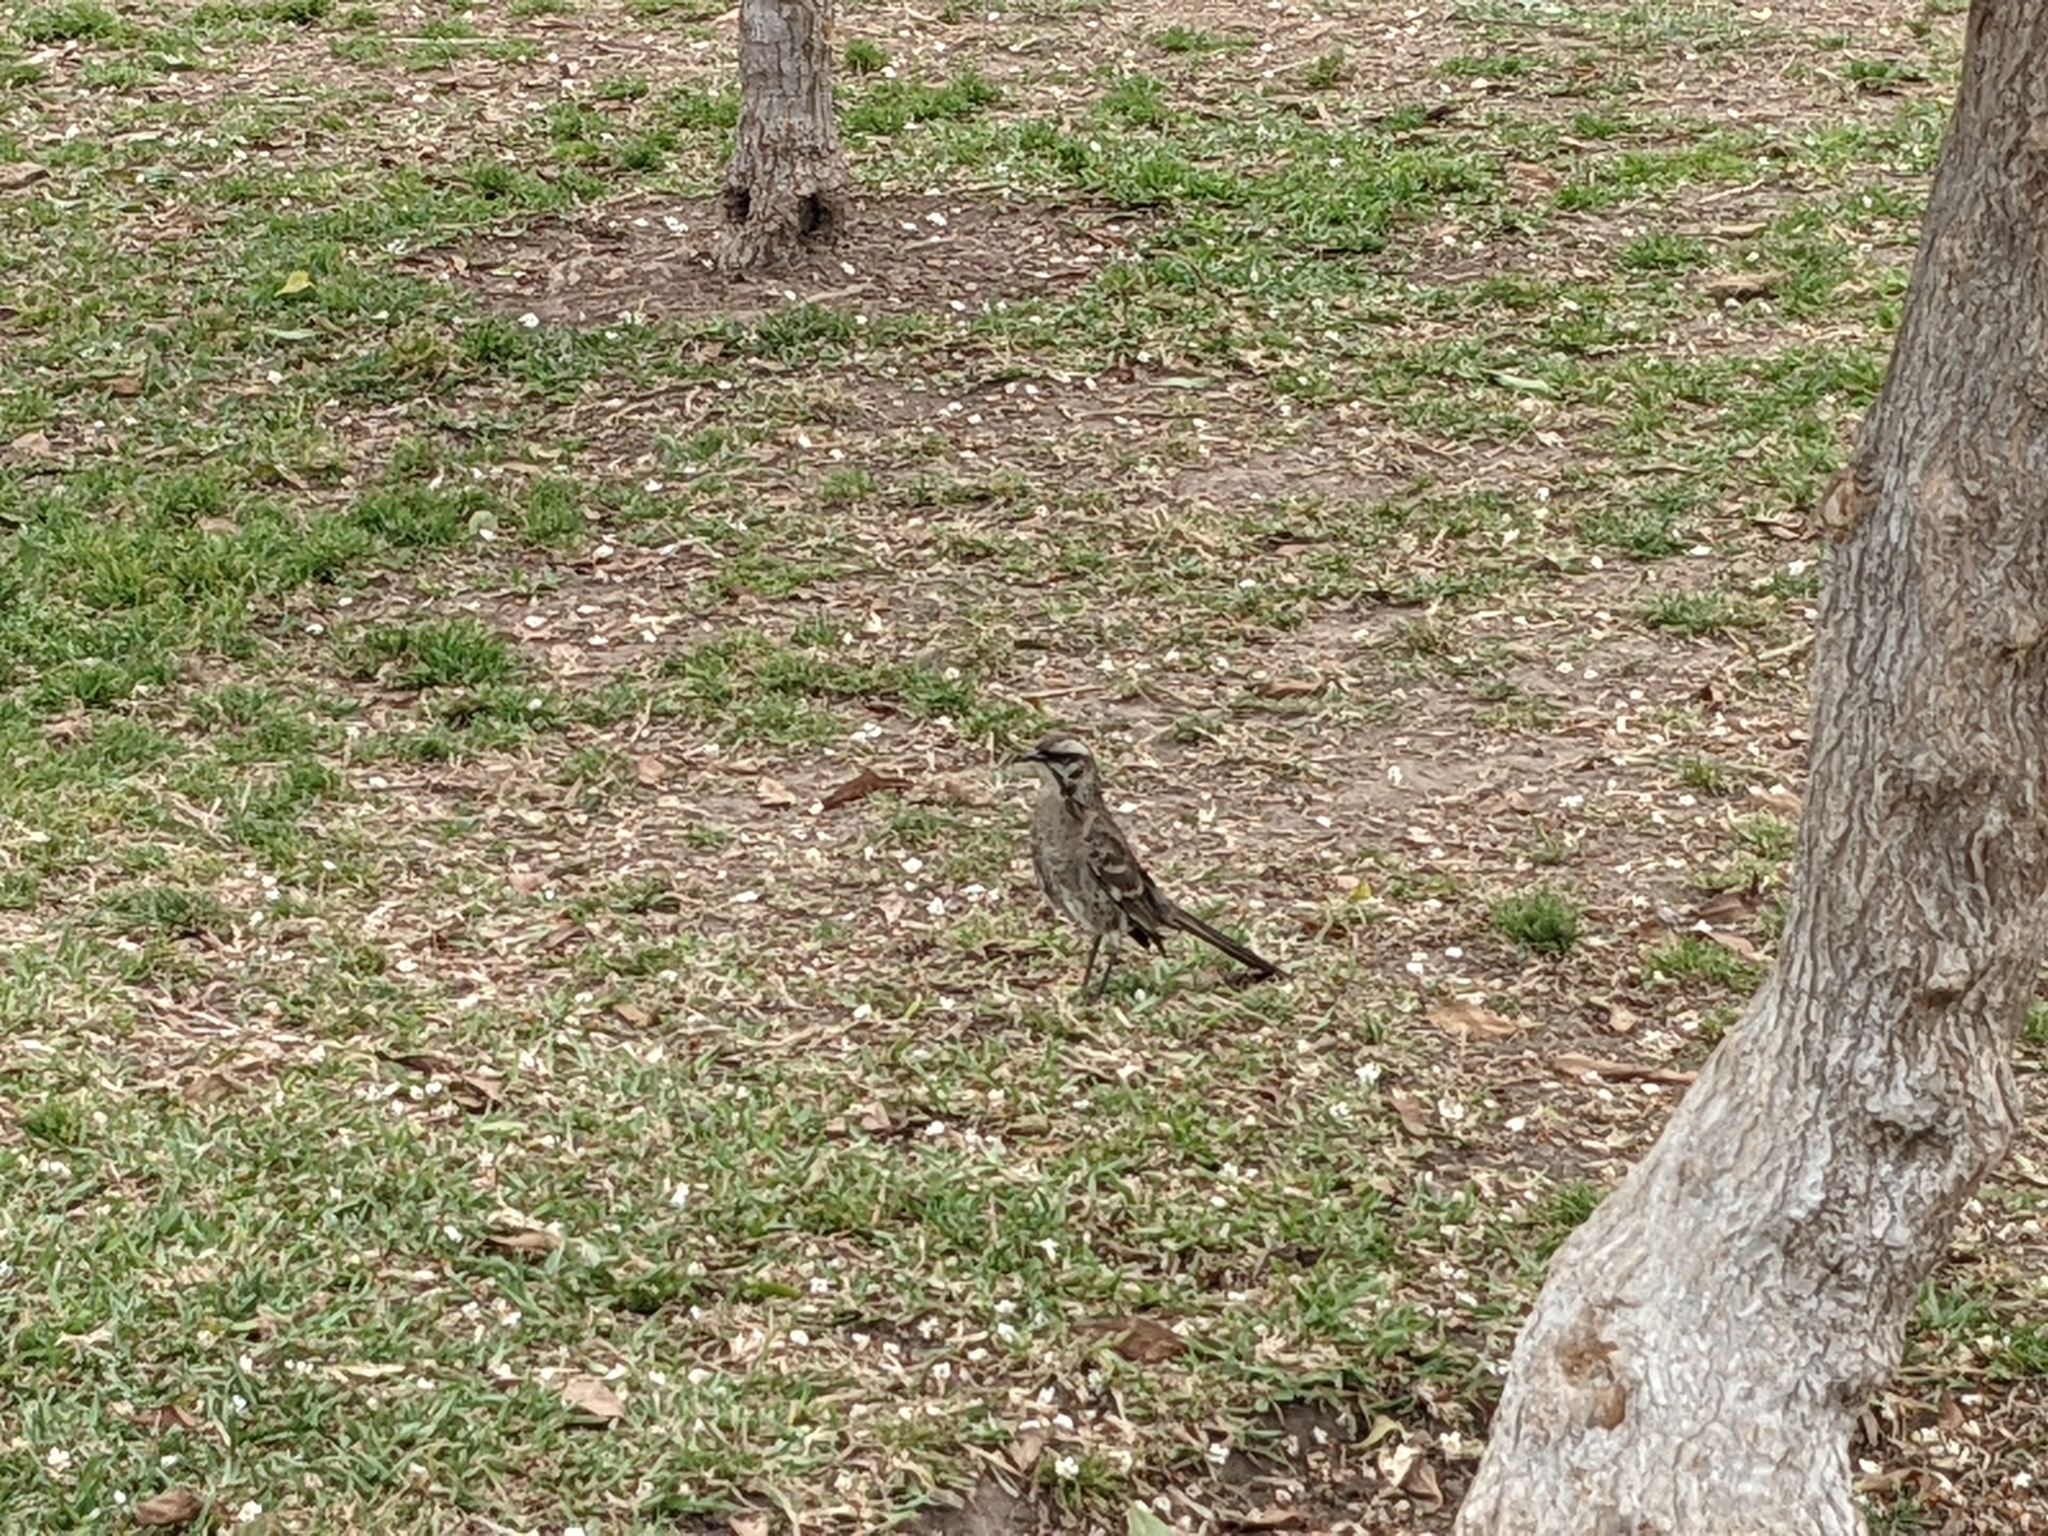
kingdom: Animalia
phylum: Chordata
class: Aves
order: Passeriformes
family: Mimidae
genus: Mimus
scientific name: Mimus longicaudatus
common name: Long-tailed mockingbird
